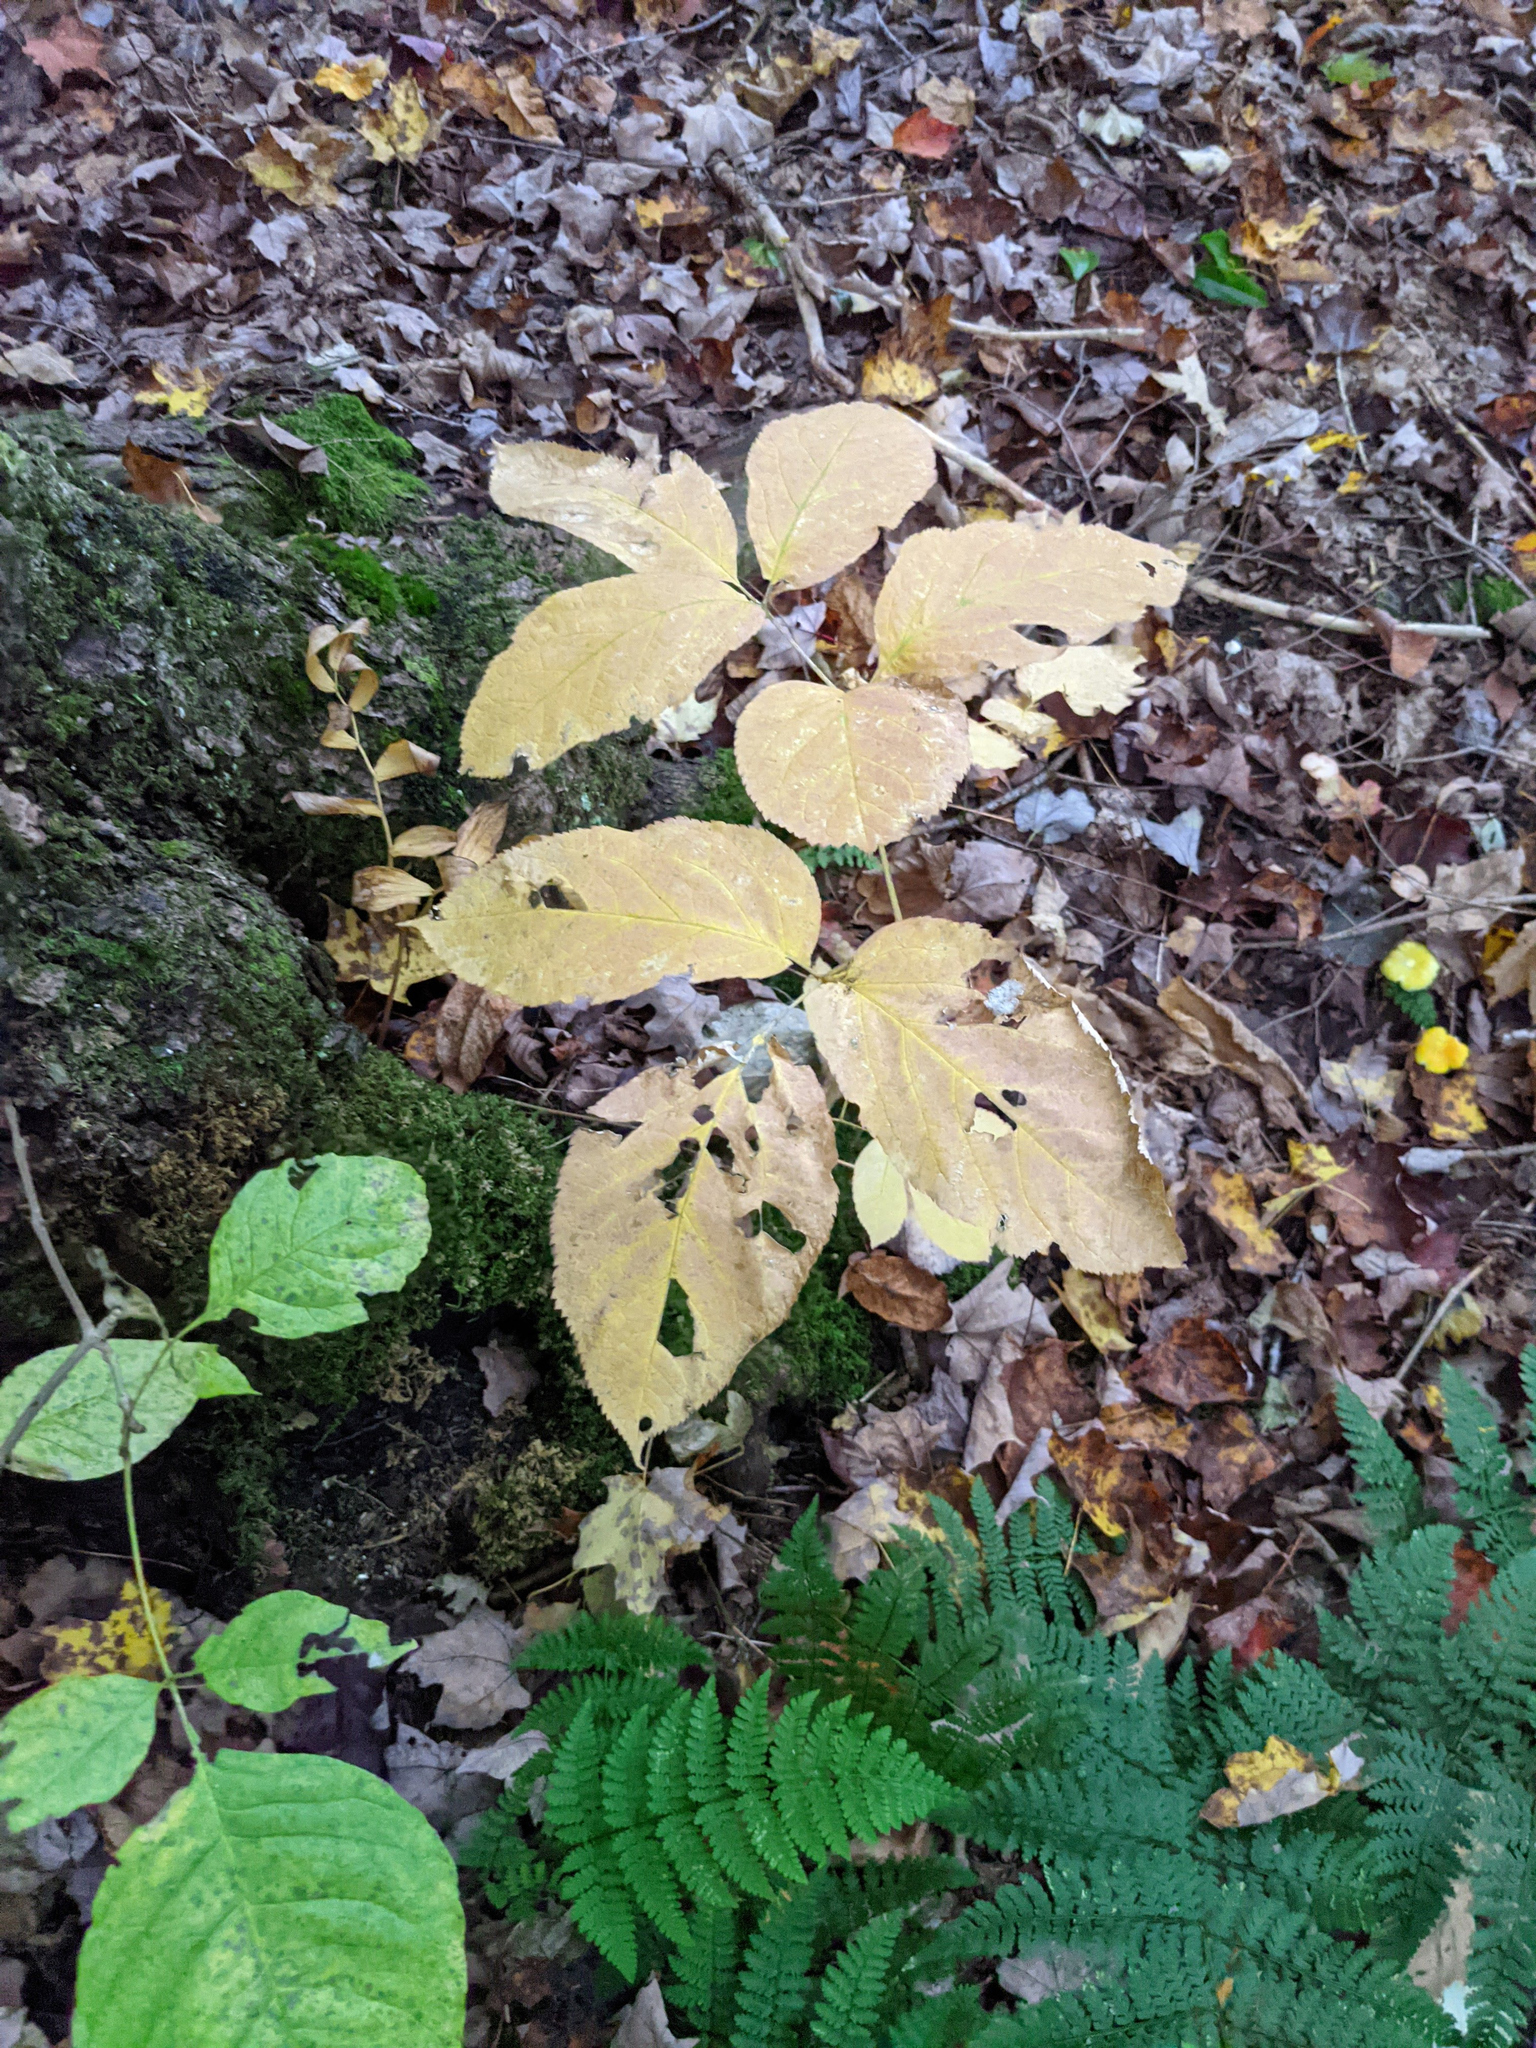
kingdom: Plantae
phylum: Tracheophyta
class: Magnoliopsida
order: Apiales
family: Araliaceae
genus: Aralia
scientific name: Aralia nudicaulis
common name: Wild sarsaparilla
